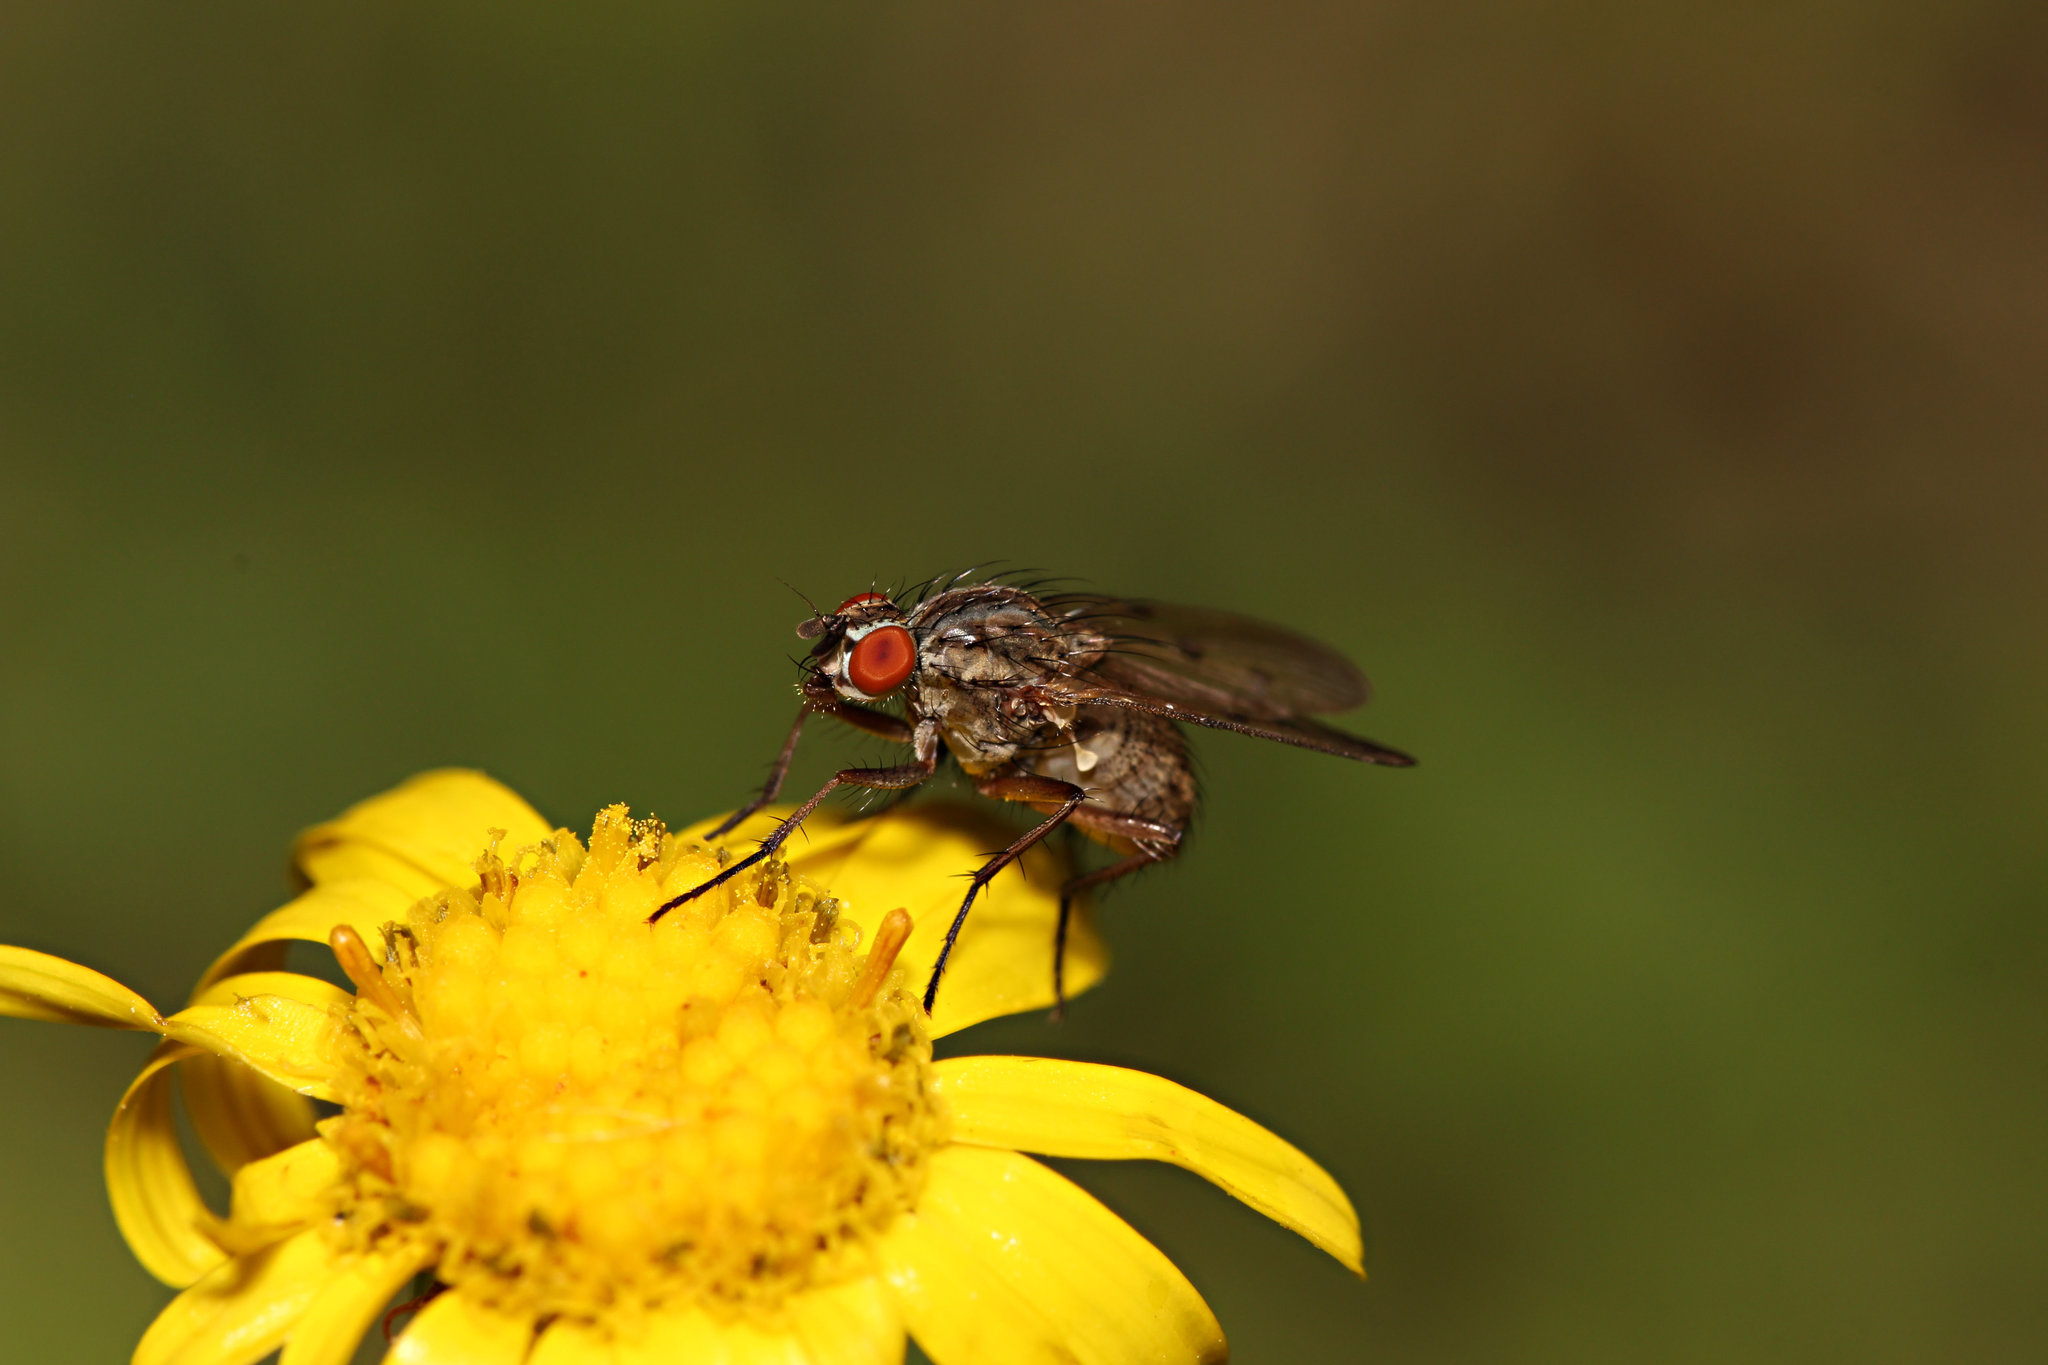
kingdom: Animalia
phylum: Arthropoda
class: Insecta
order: Diptera
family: Anthomyiidae
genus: Anthomyia
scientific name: Anthomyia punctipennis
